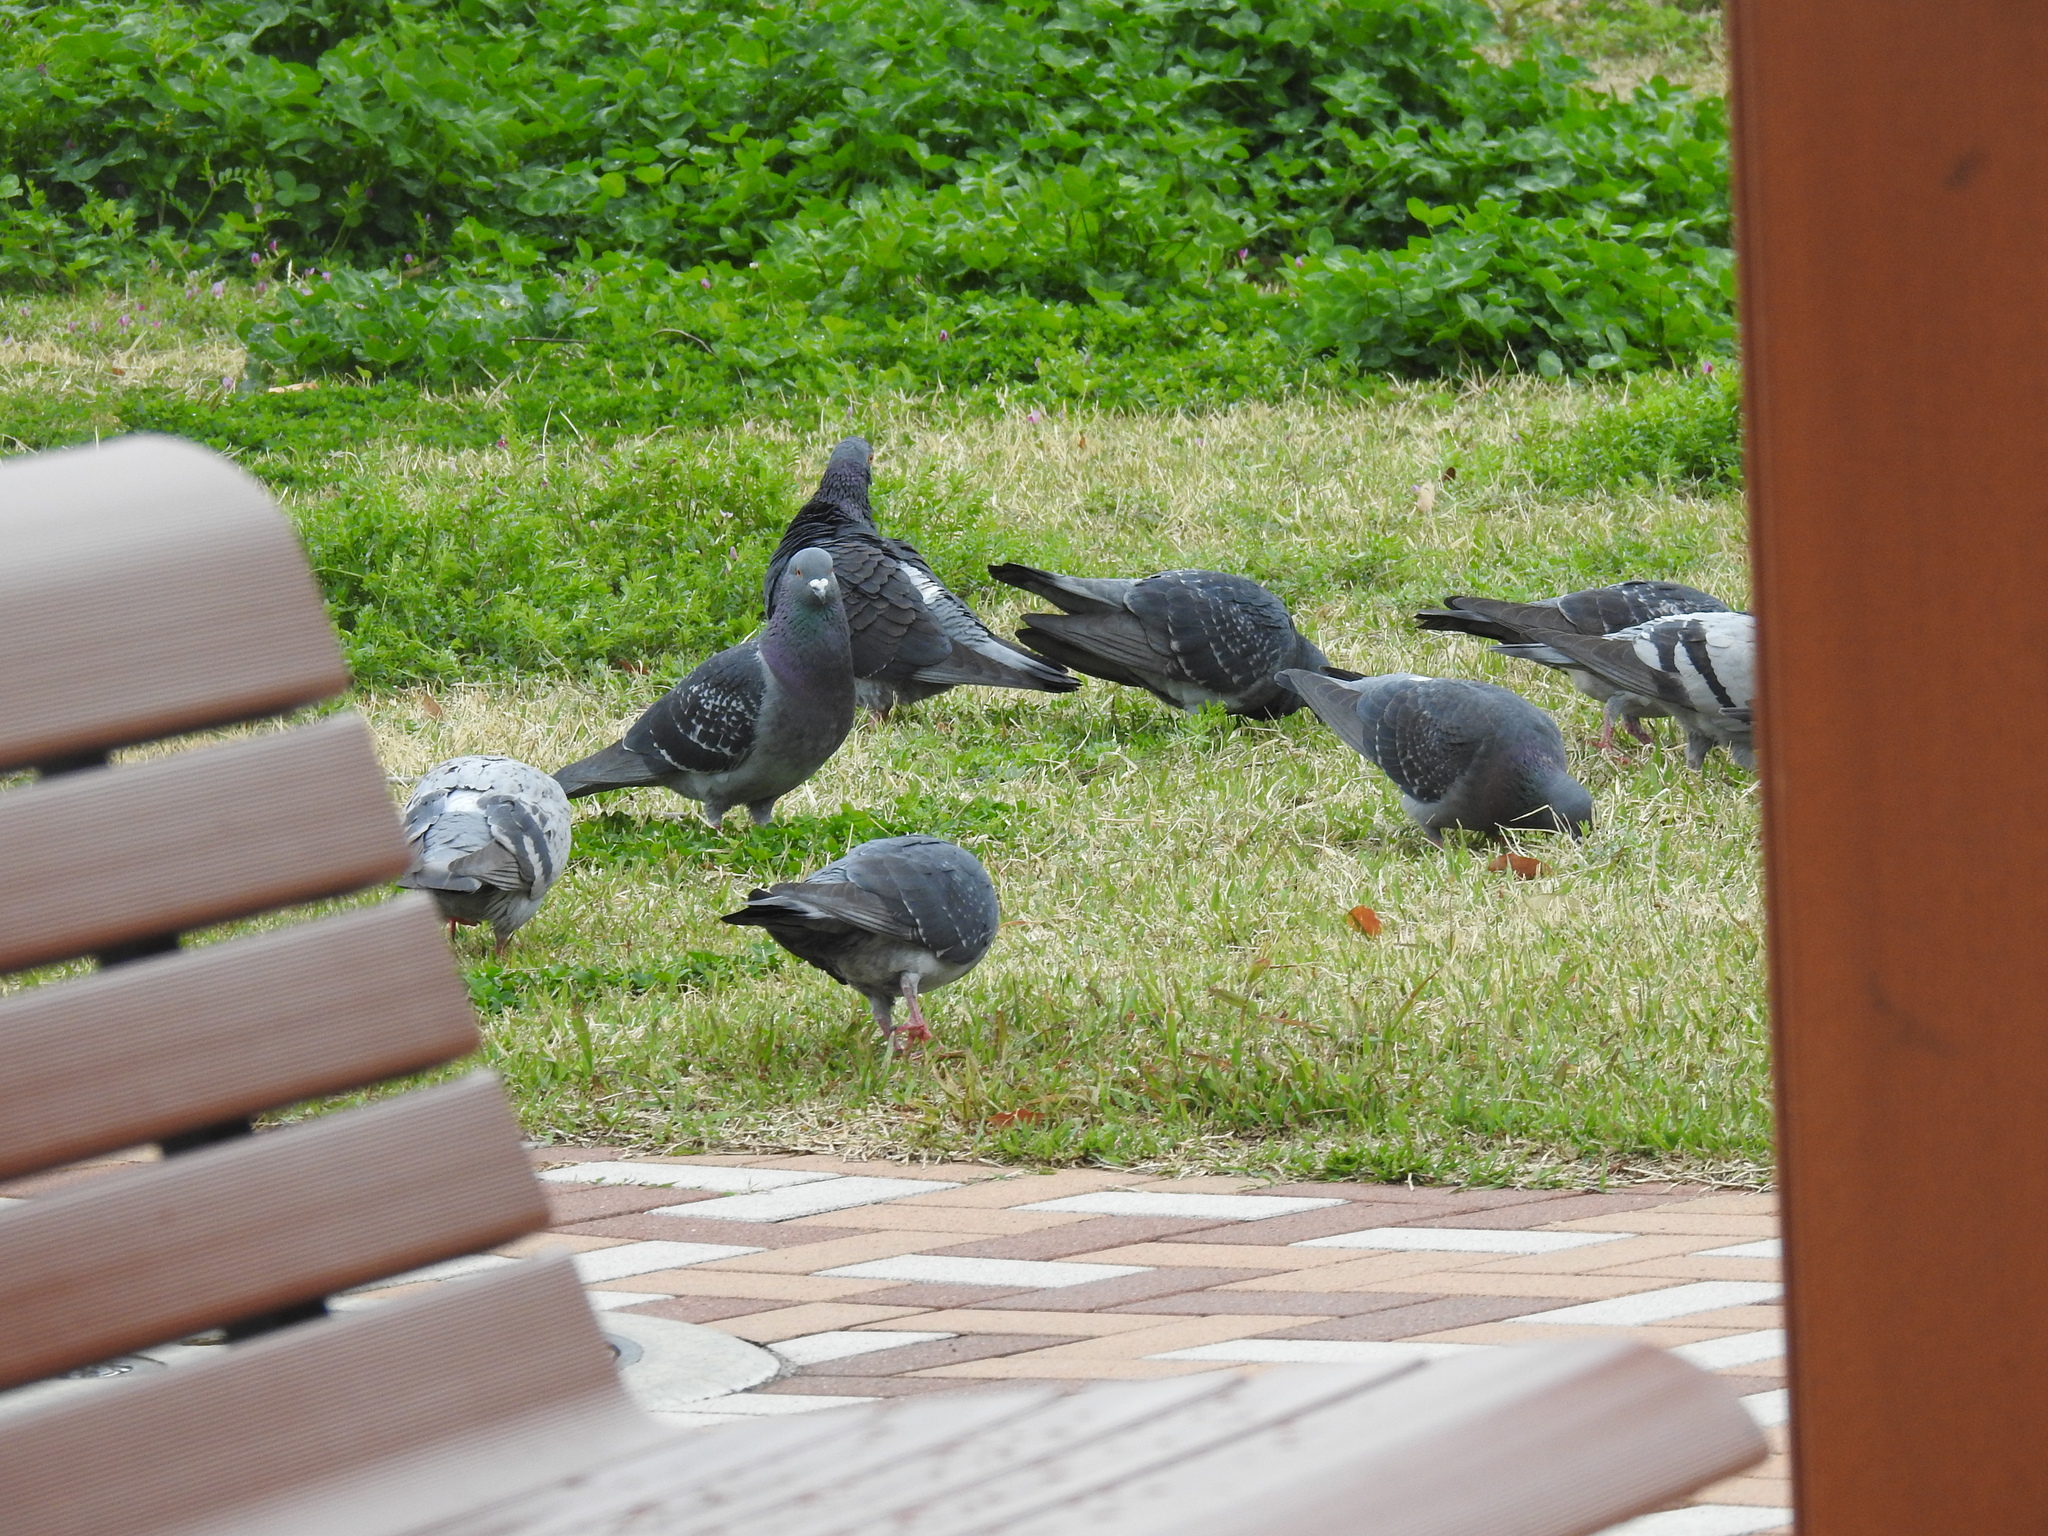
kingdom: Animalia
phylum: Chordata
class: Aves
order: Columbiformes
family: Columbidae
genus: Columba
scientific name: Columba livia
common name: Rock pigeon
